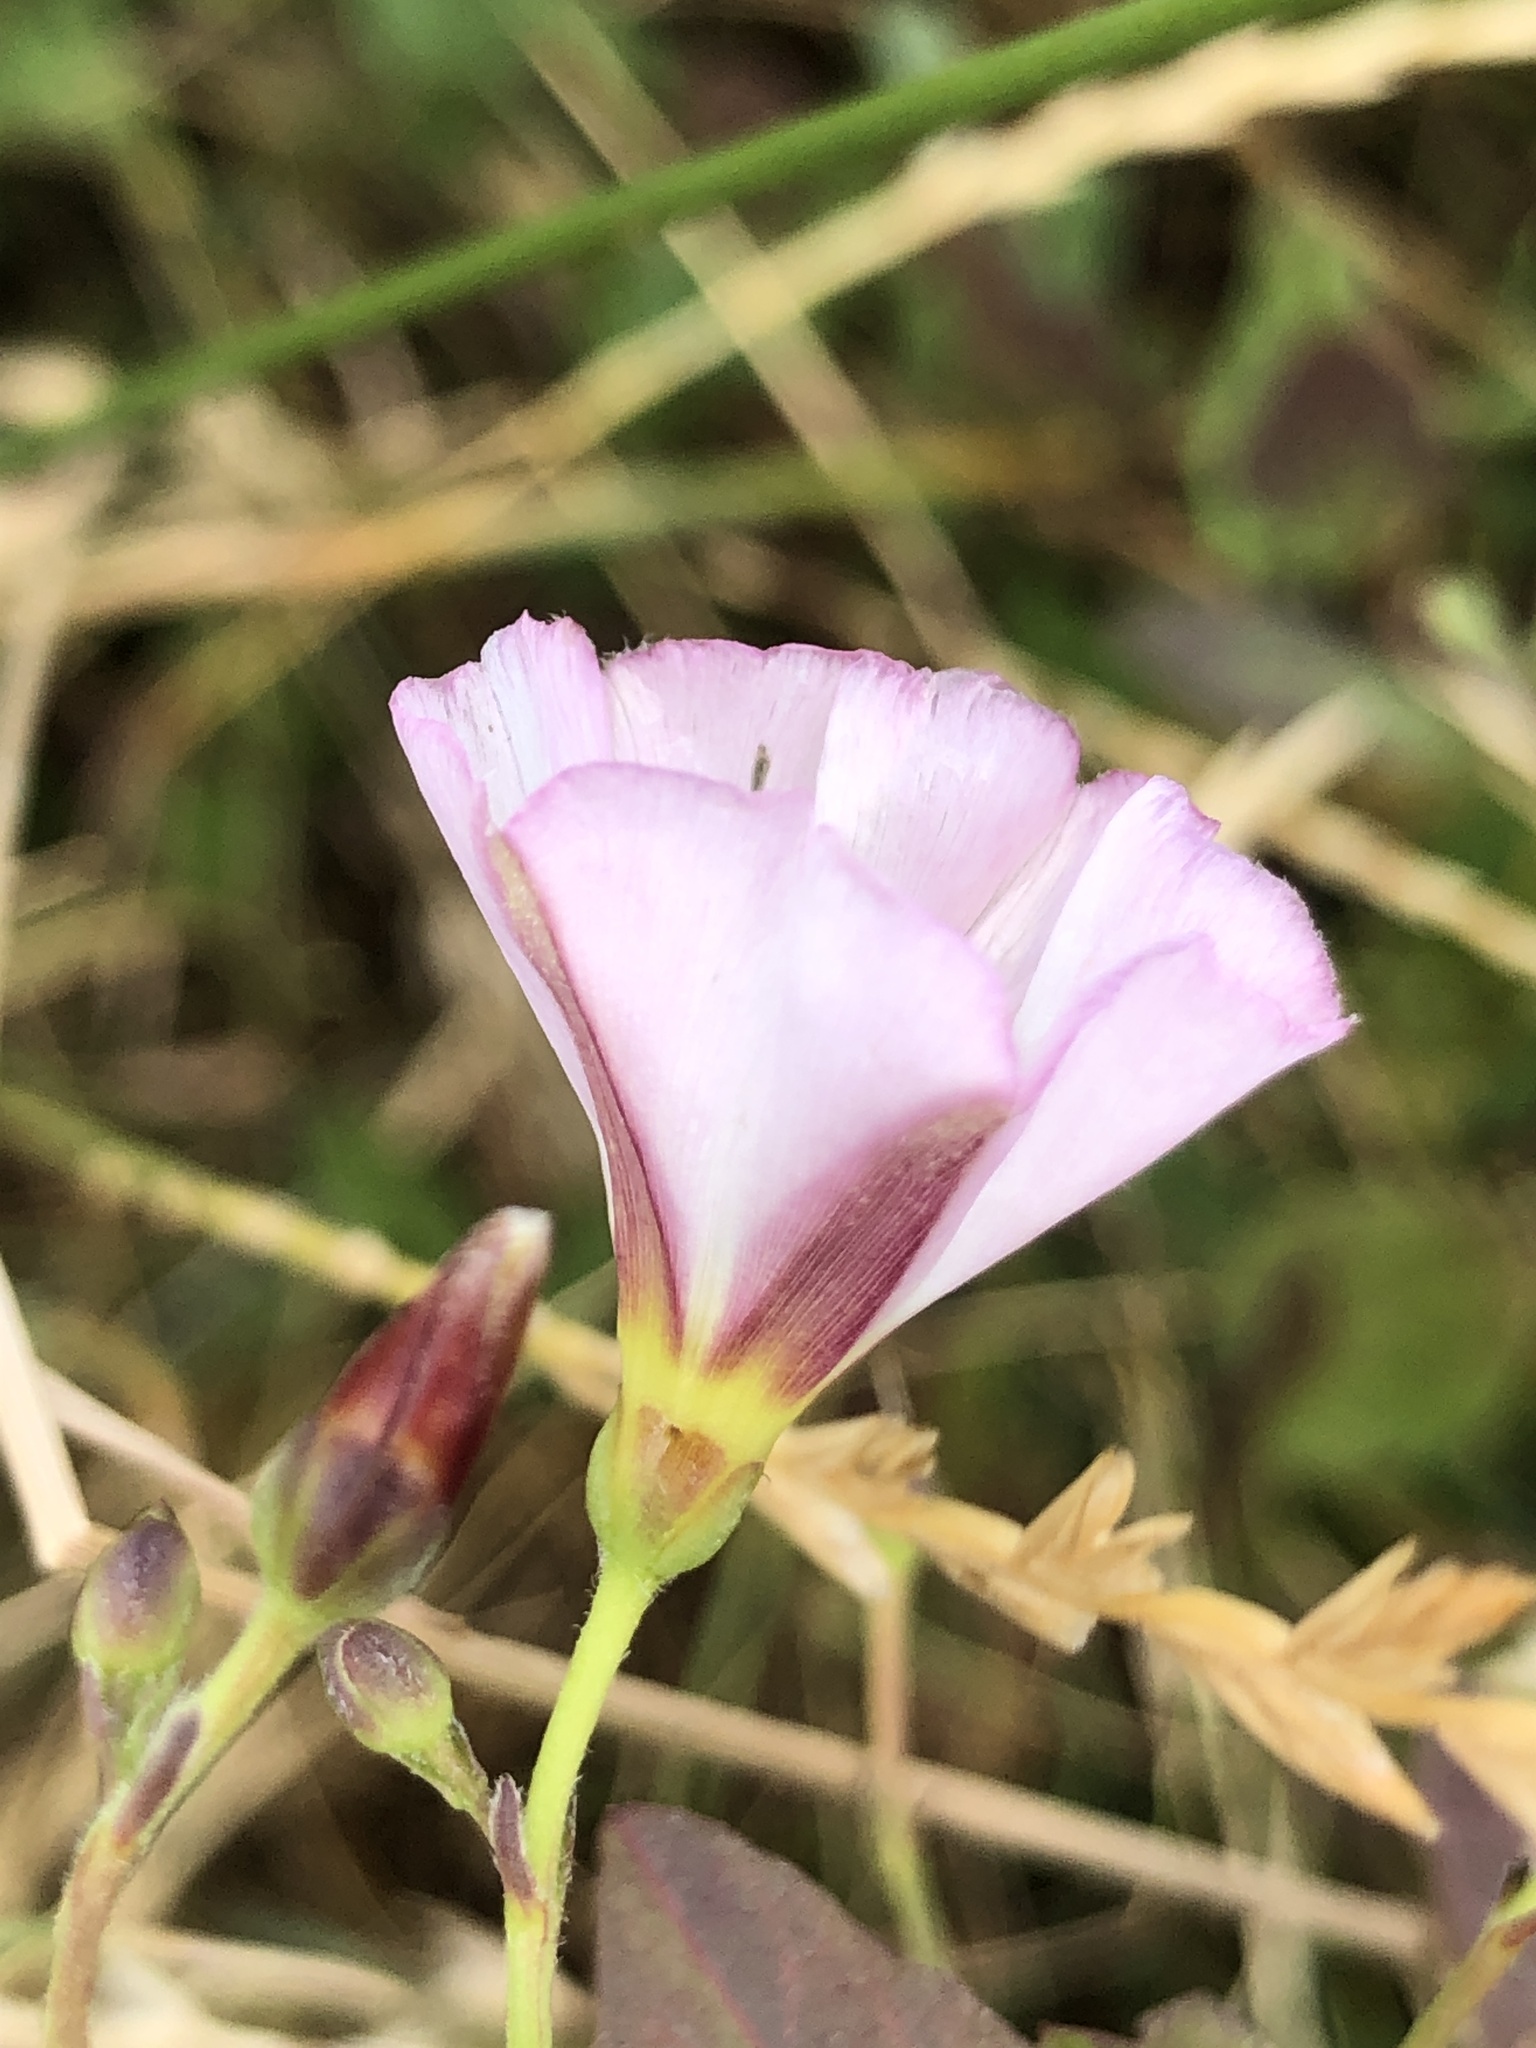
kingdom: Plantae
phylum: Tracheophyta
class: Magnoliopsida
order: Solanales
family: Convolvulaceae
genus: Convolvulus
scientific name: Convolvulus arvensis
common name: Field bindweed
